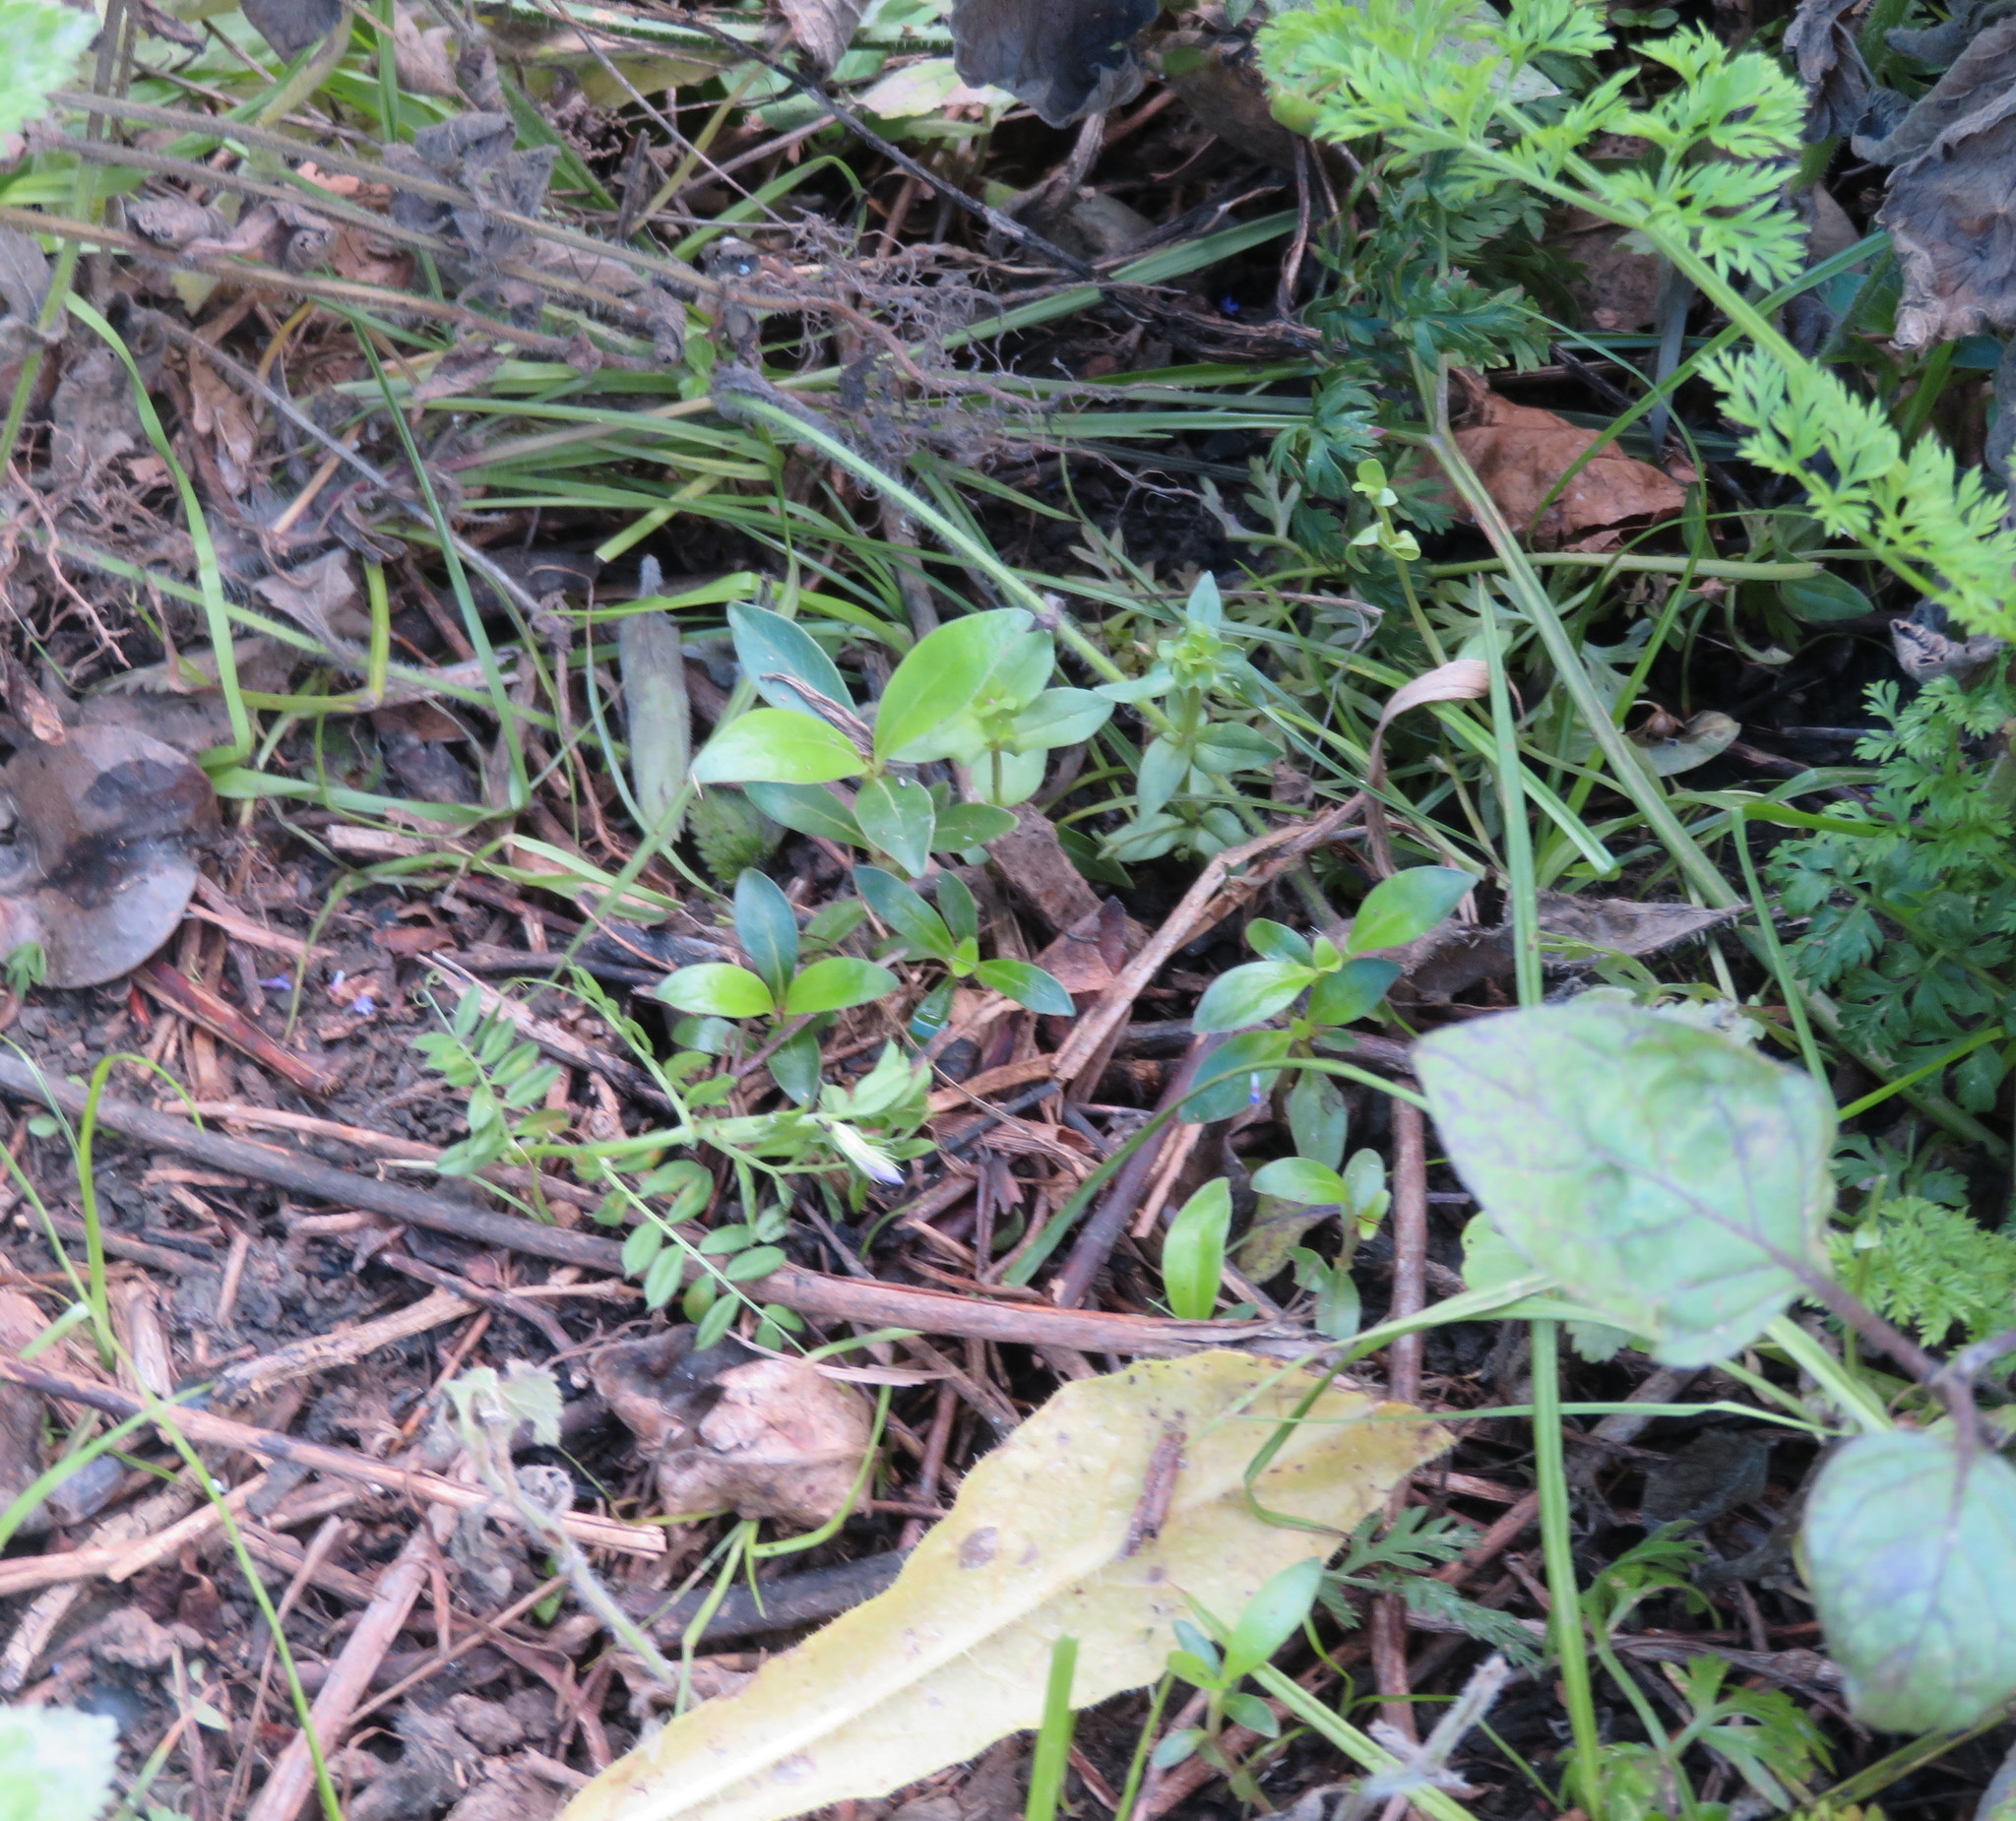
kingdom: Plantae
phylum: Tracheophyta
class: Magnoliopsida
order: Gentianales
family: Rubiaceae
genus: Coprosma
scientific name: Coprosma robusta
